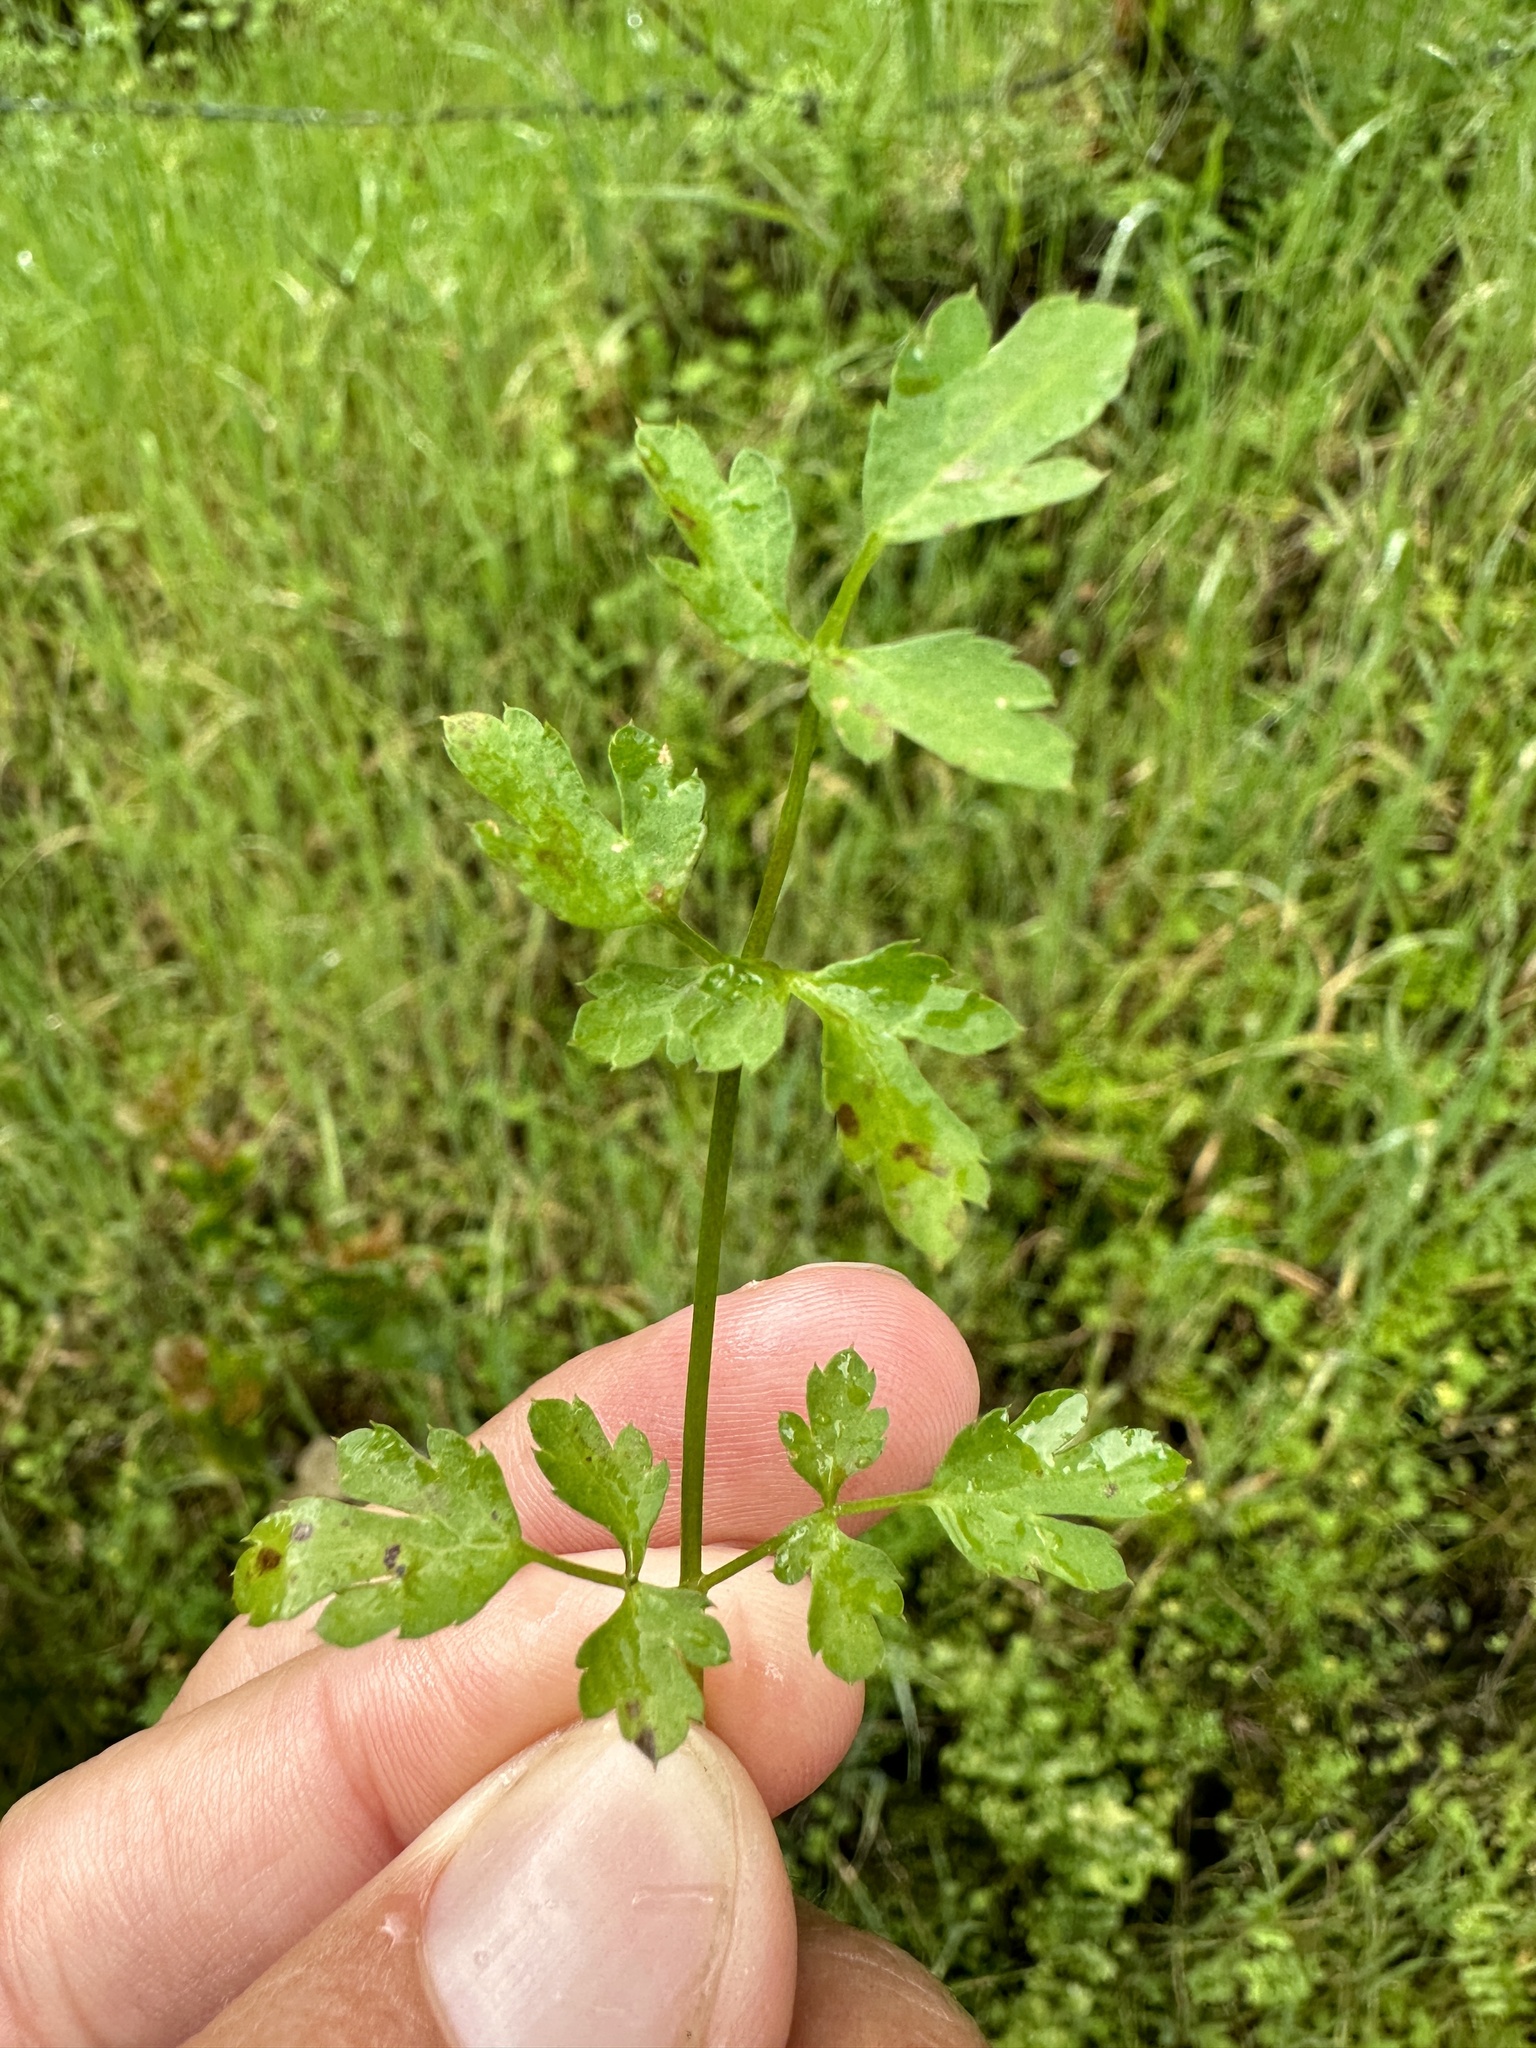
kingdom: Plantae
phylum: Tracheophyta
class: Magnoliopsida
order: Apiales
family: Apiaceae
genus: Sanicula
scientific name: Sanicula bipinnata
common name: Poison sanicle
